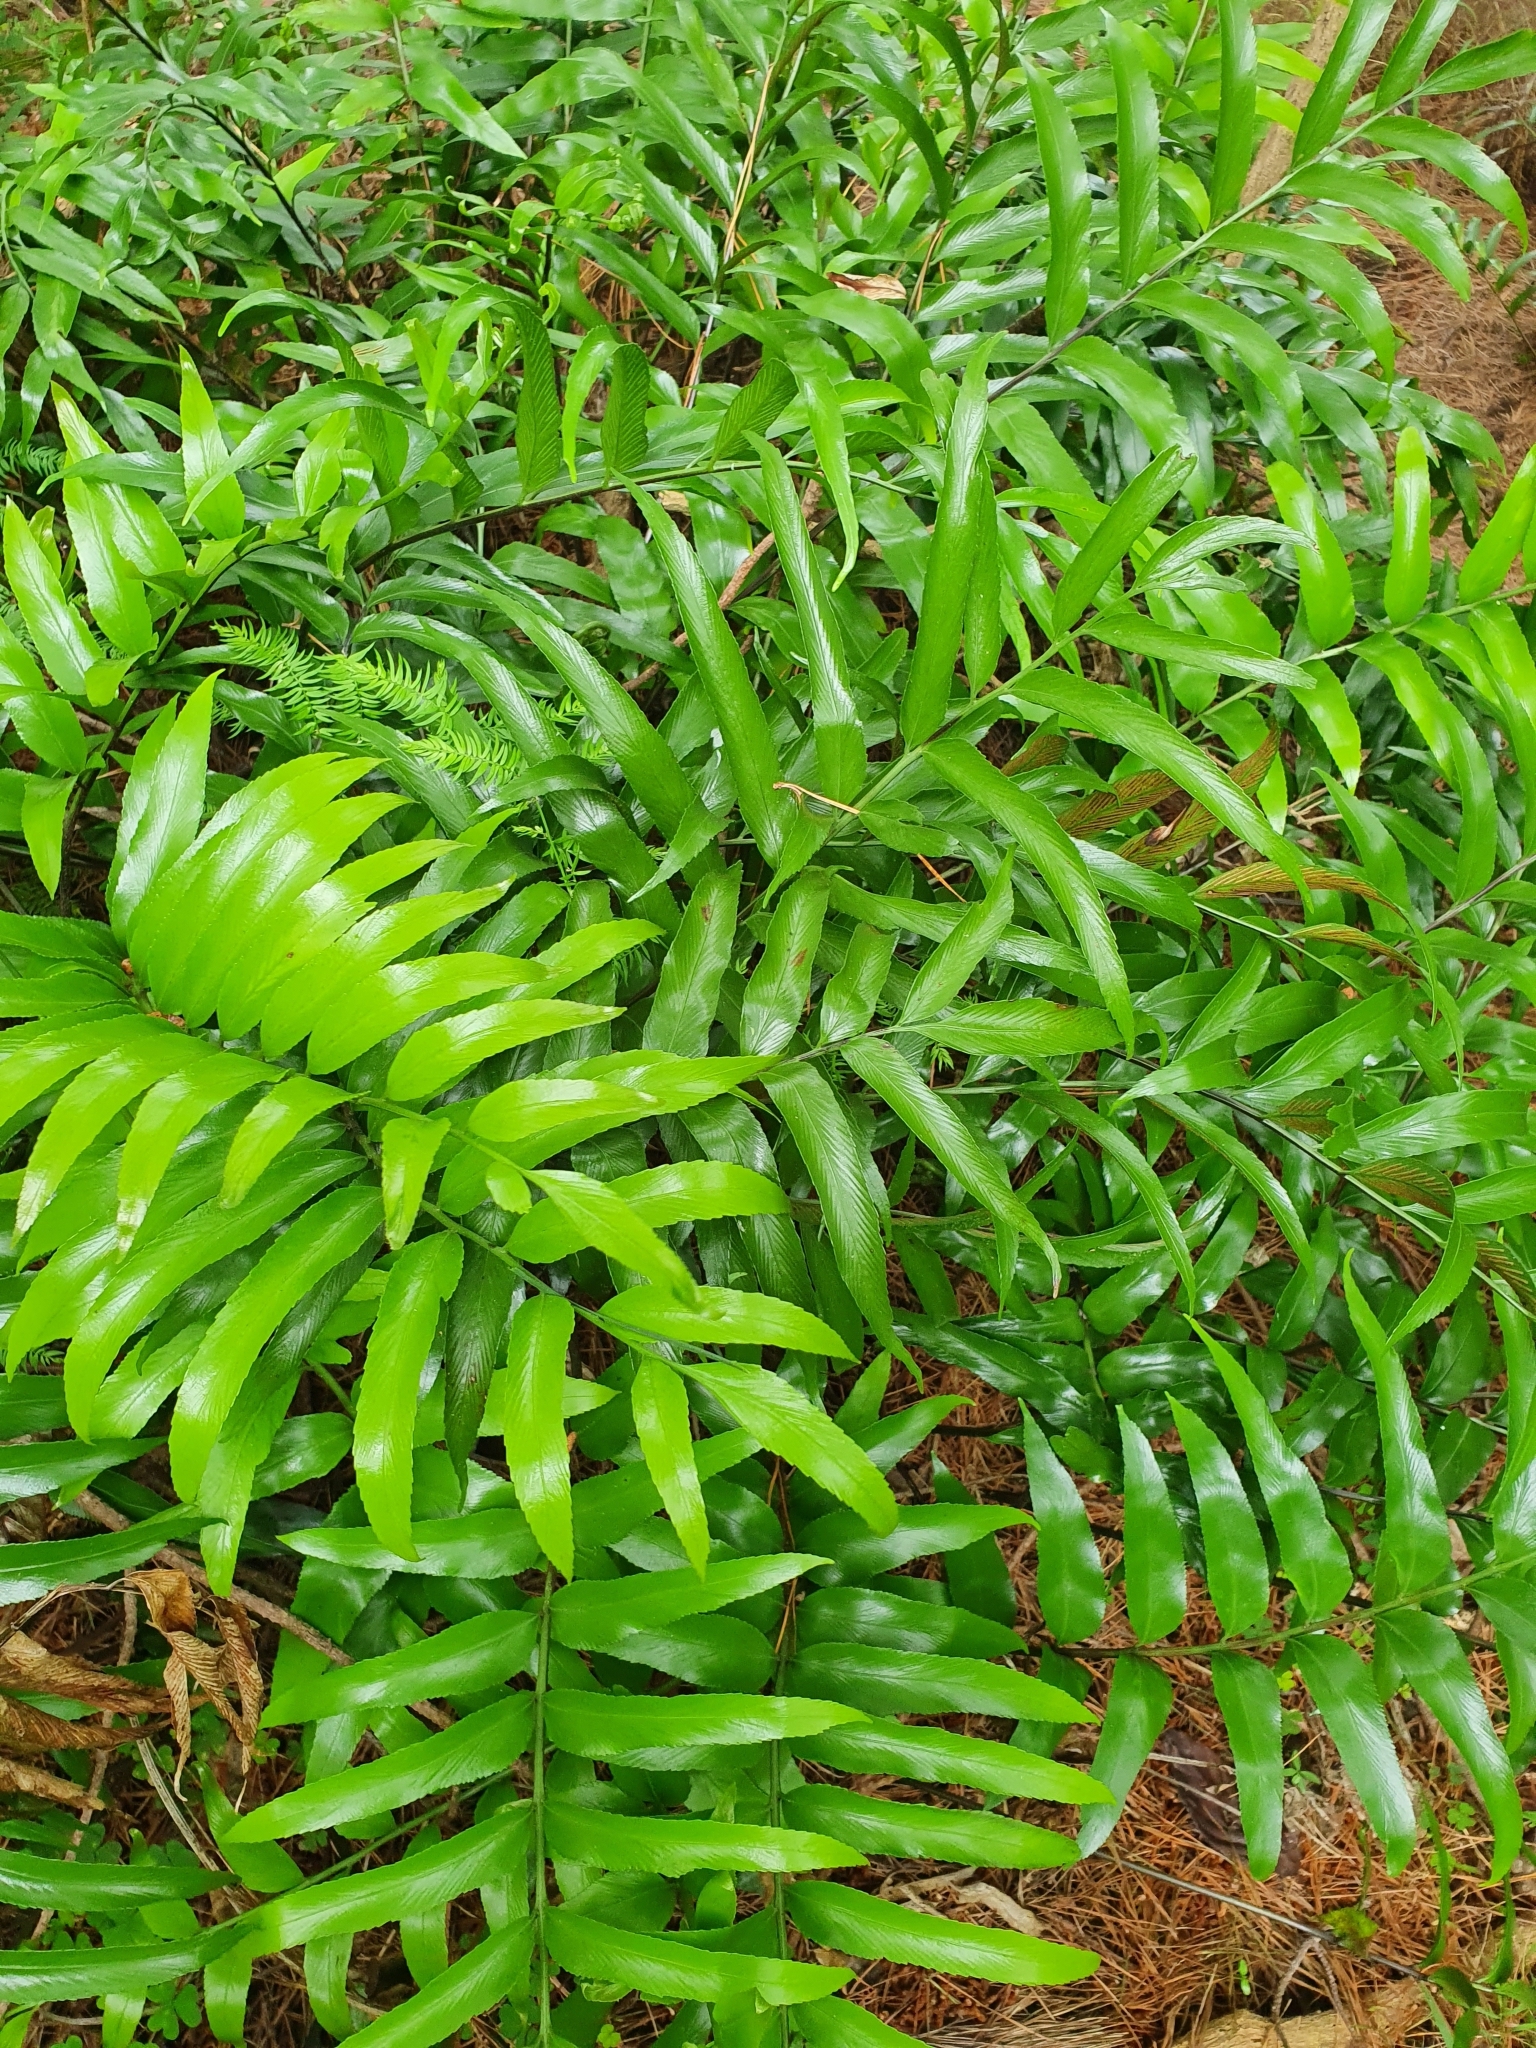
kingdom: Plantae
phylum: Tracheophyta
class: Polypodiopsida
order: Polypodiales
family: Aspleniaceae
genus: Asplenium
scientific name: Asplenium oblongifolium
